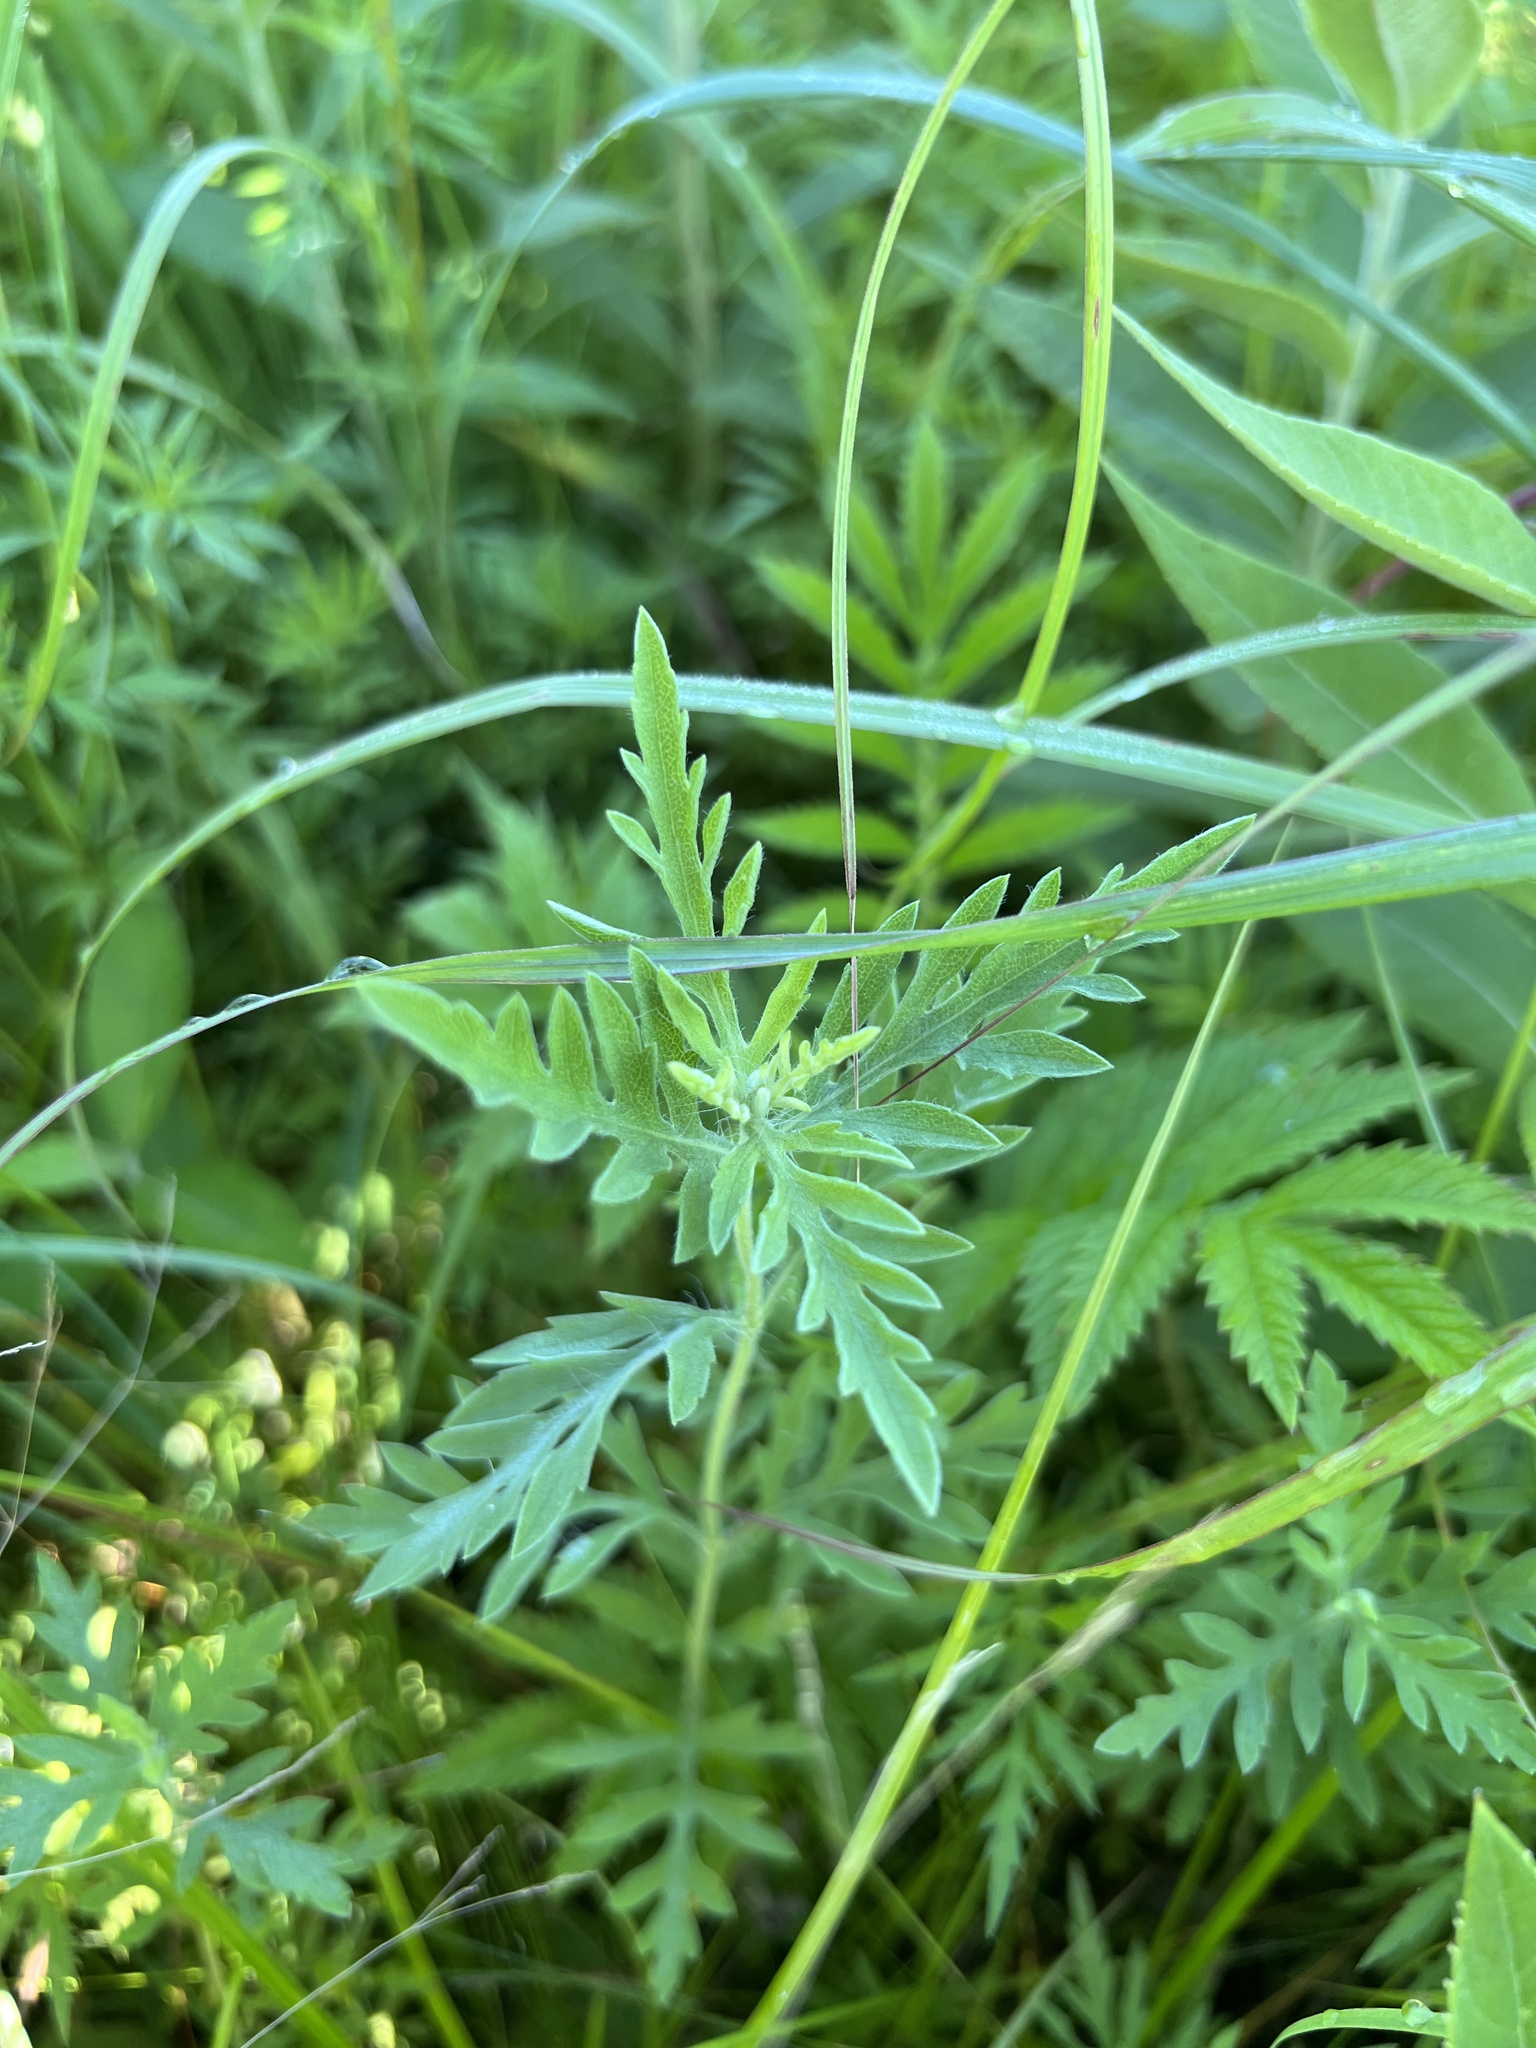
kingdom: Plantae
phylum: Tracheophyta
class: Magnoliopsida
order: Asterales
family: Asteraceae
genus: Ambrosia
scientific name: Ambrosia psilostachya
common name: Perennial ragweed
